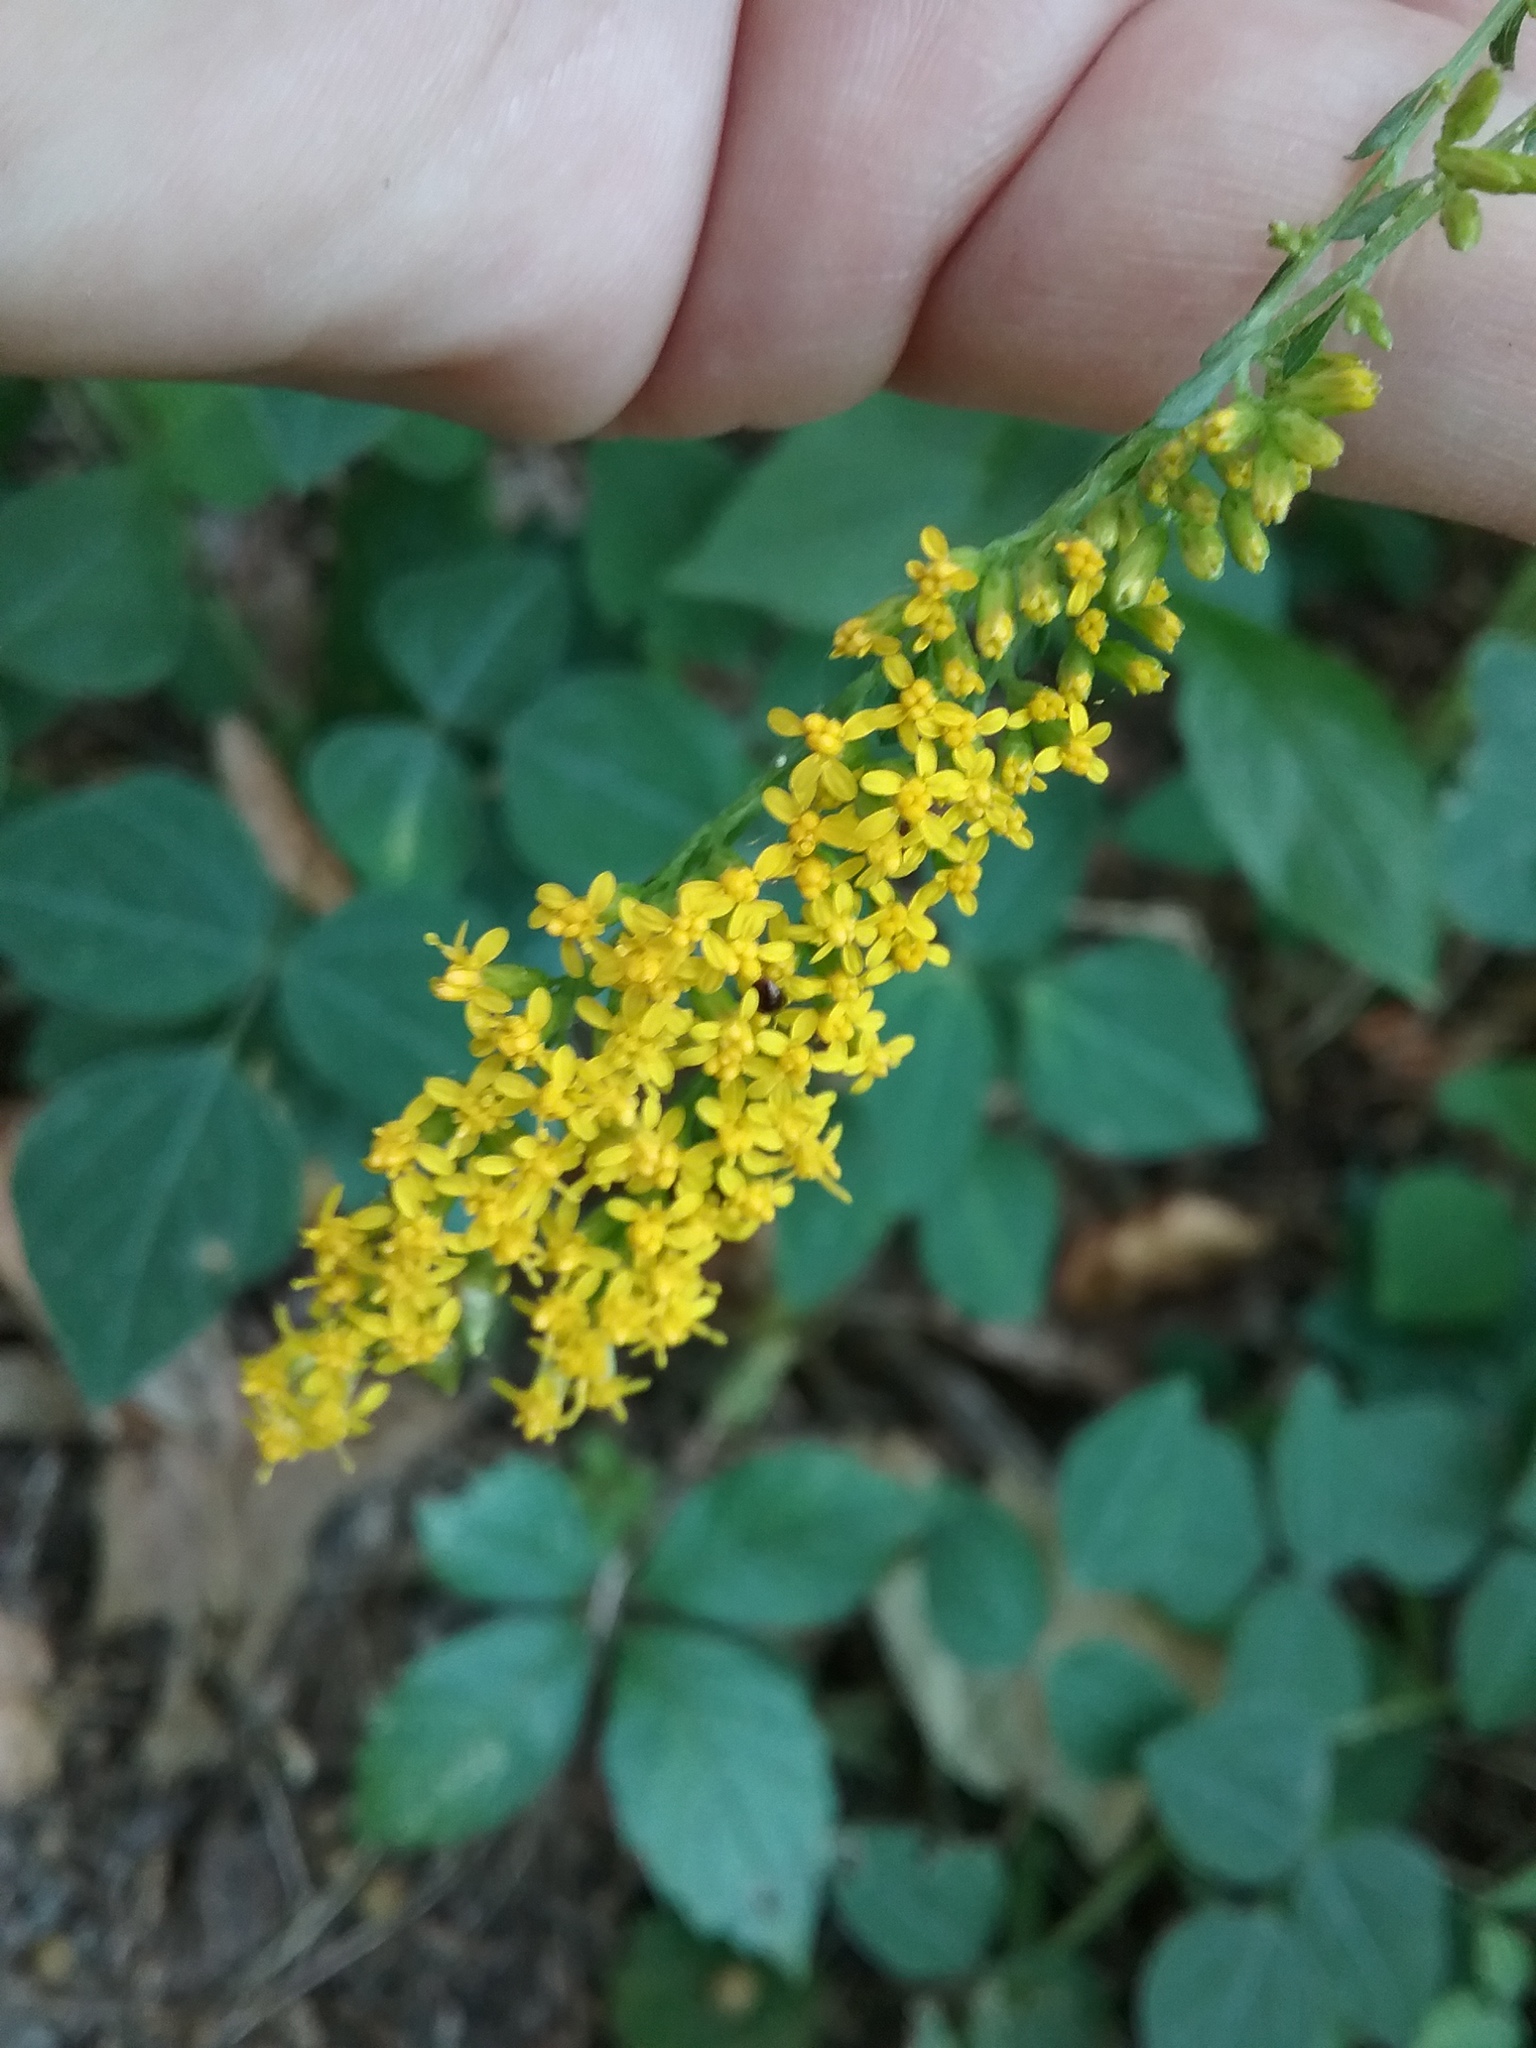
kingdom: Plantae
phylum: Tracheophyta
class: Magnoliopsida
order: Asterales
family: Asteraceae
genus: Solidago
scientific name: Solidago ulmifolia
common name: Elm-leaf goldenrod
